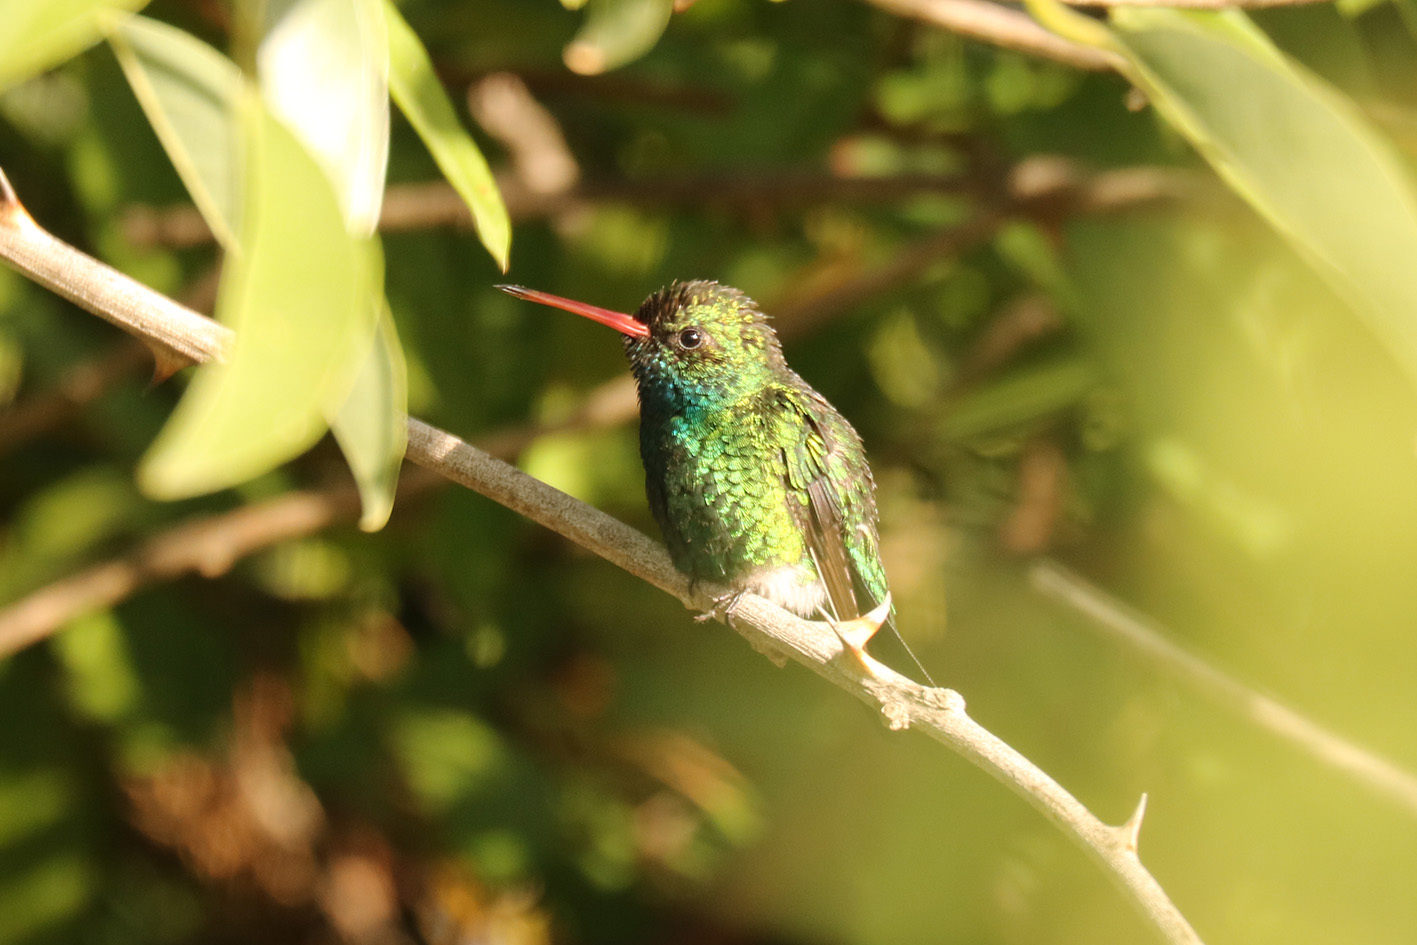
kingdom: Animalia
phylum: Chordata
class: Aves
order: Apodiformes
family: Trochilidae
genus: Chlorostilbon
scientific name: Chlorostilbon lucidus
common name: Glittering-bellied emerald
